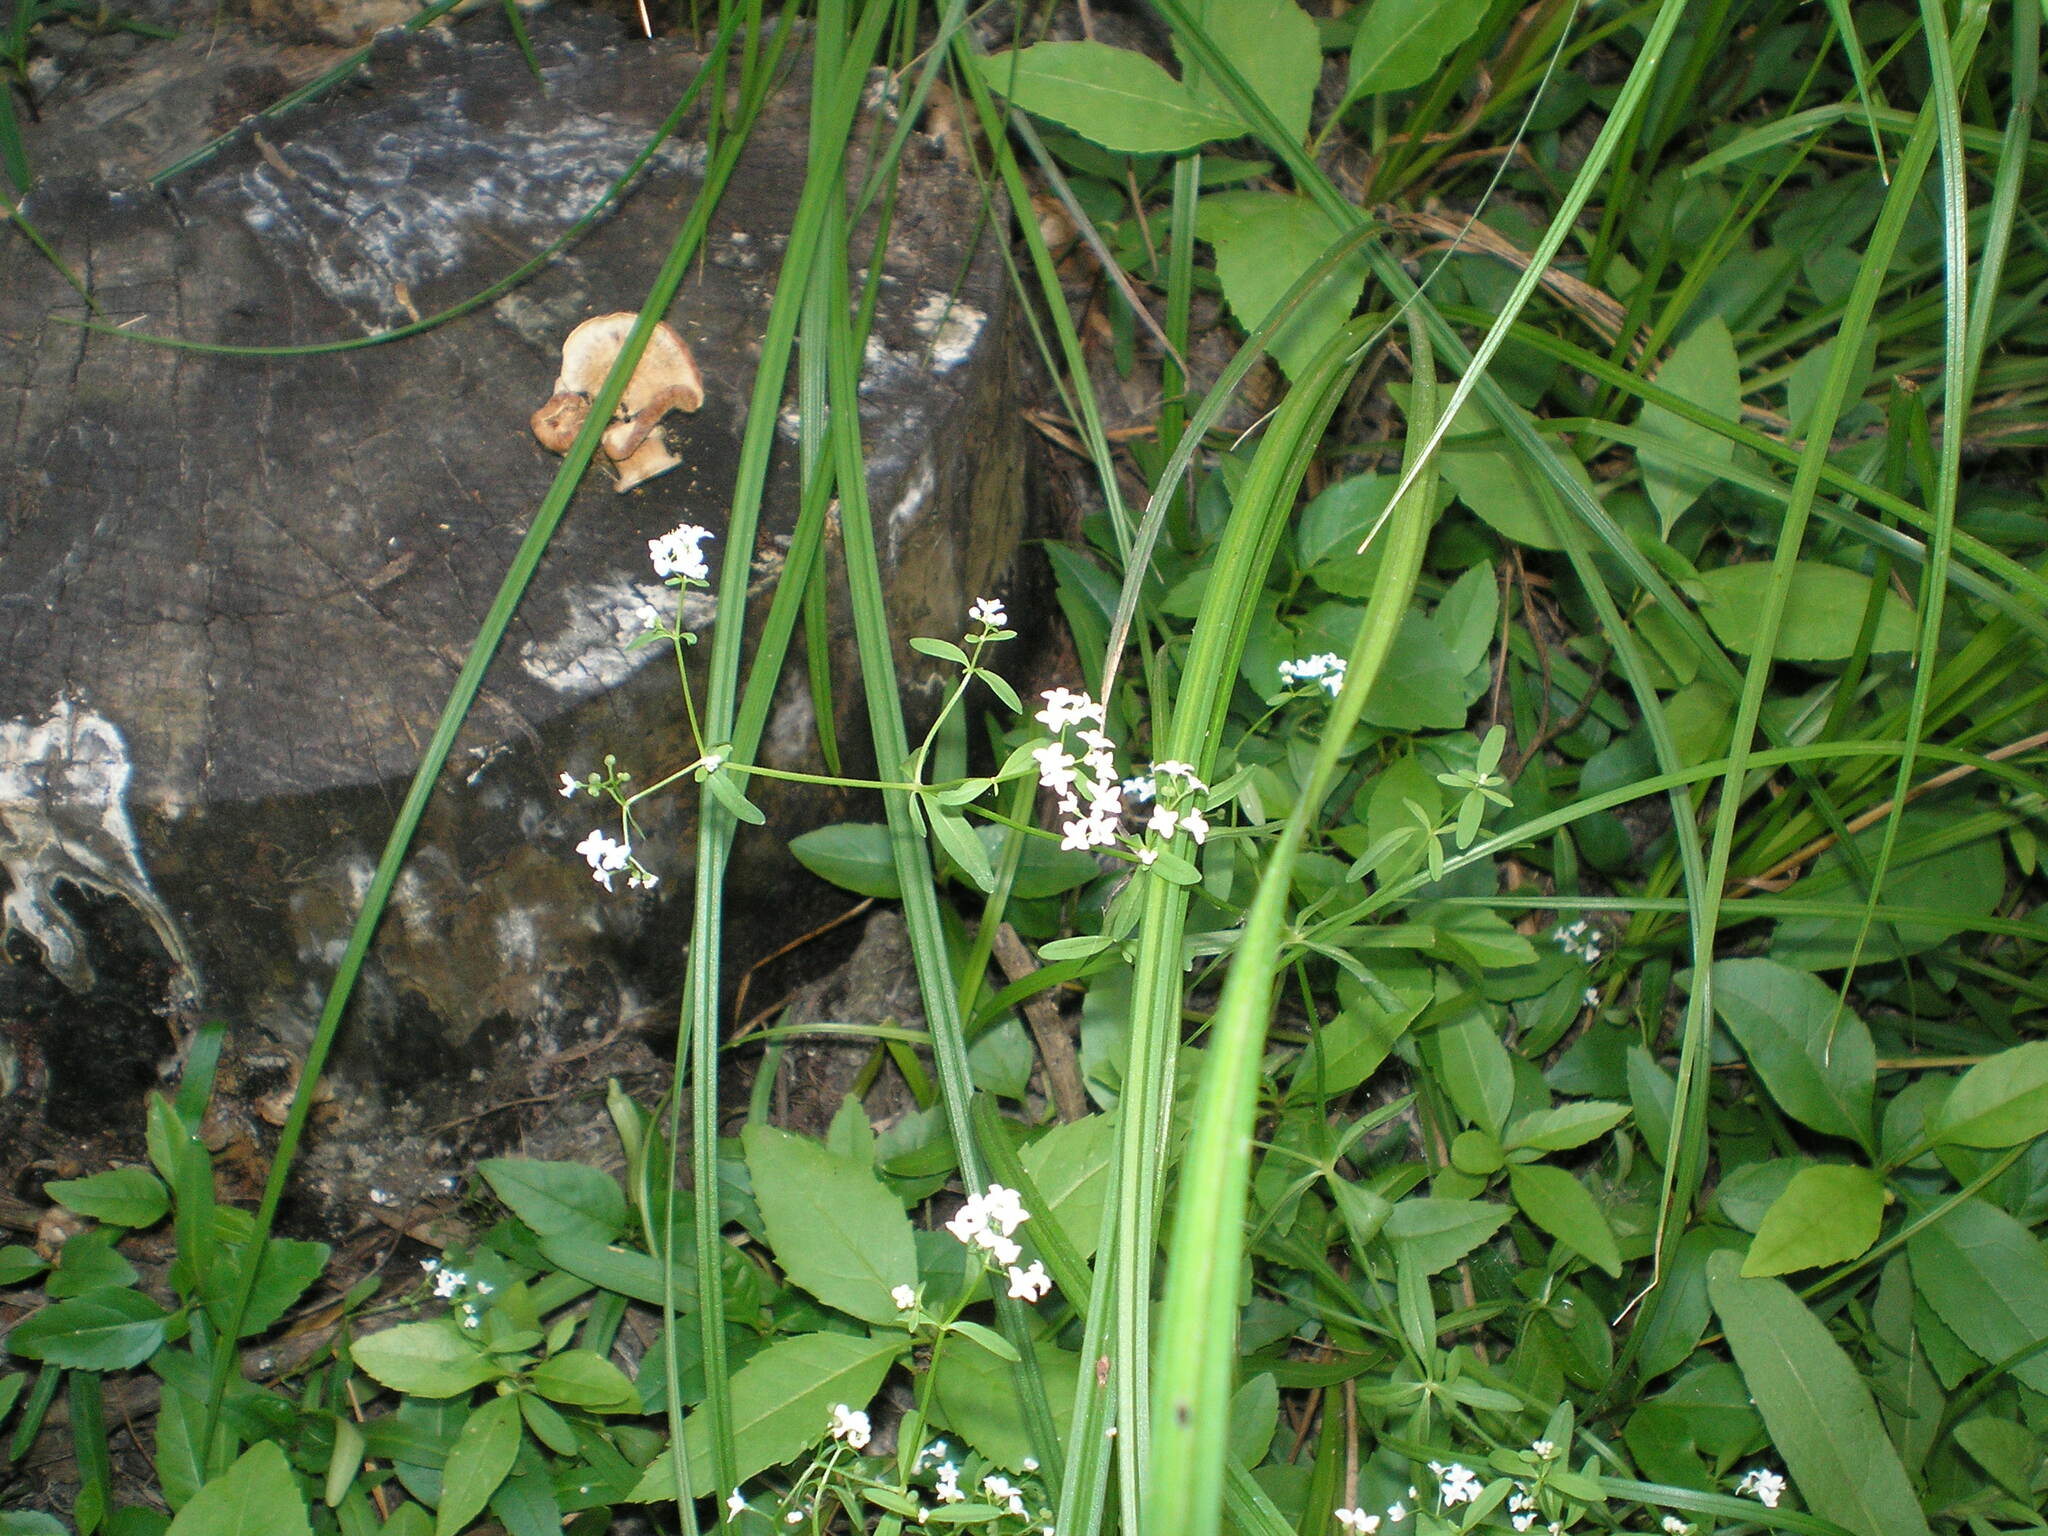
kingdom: Plantae
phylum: Tracheophyta
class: Magnoliopsida
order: Gentianales
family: Rubiaceae
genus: Galium
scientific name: Galium palustre
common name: Common marsh-bedstraw
